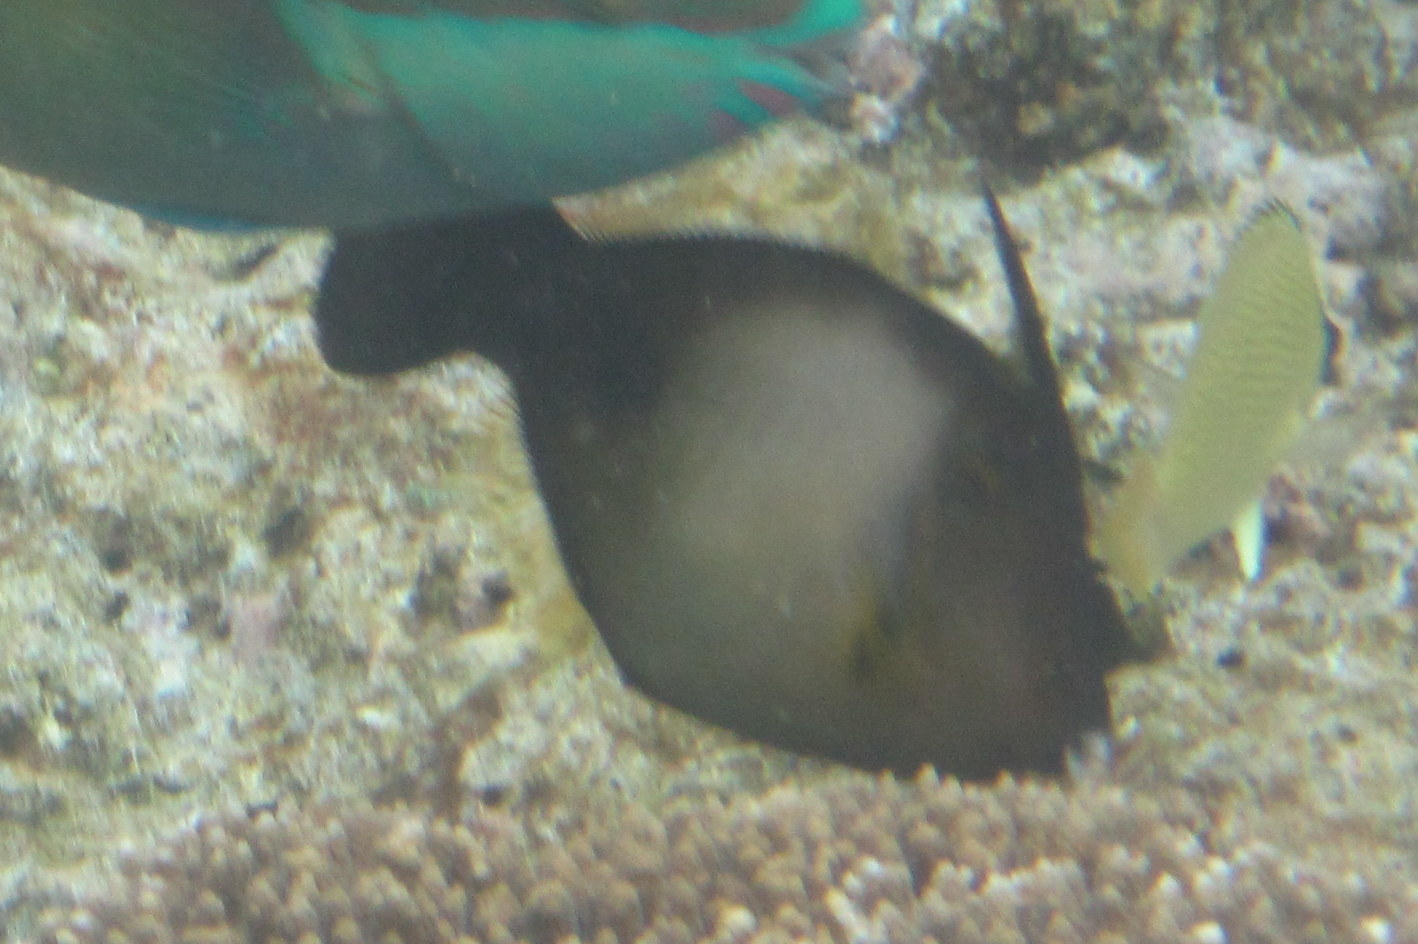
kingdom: Animalia
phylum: Chordata
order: Tetraodontiformes
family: Monacanthidae
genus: Amanses
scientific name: Amanses scopas
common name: Broom filefish
